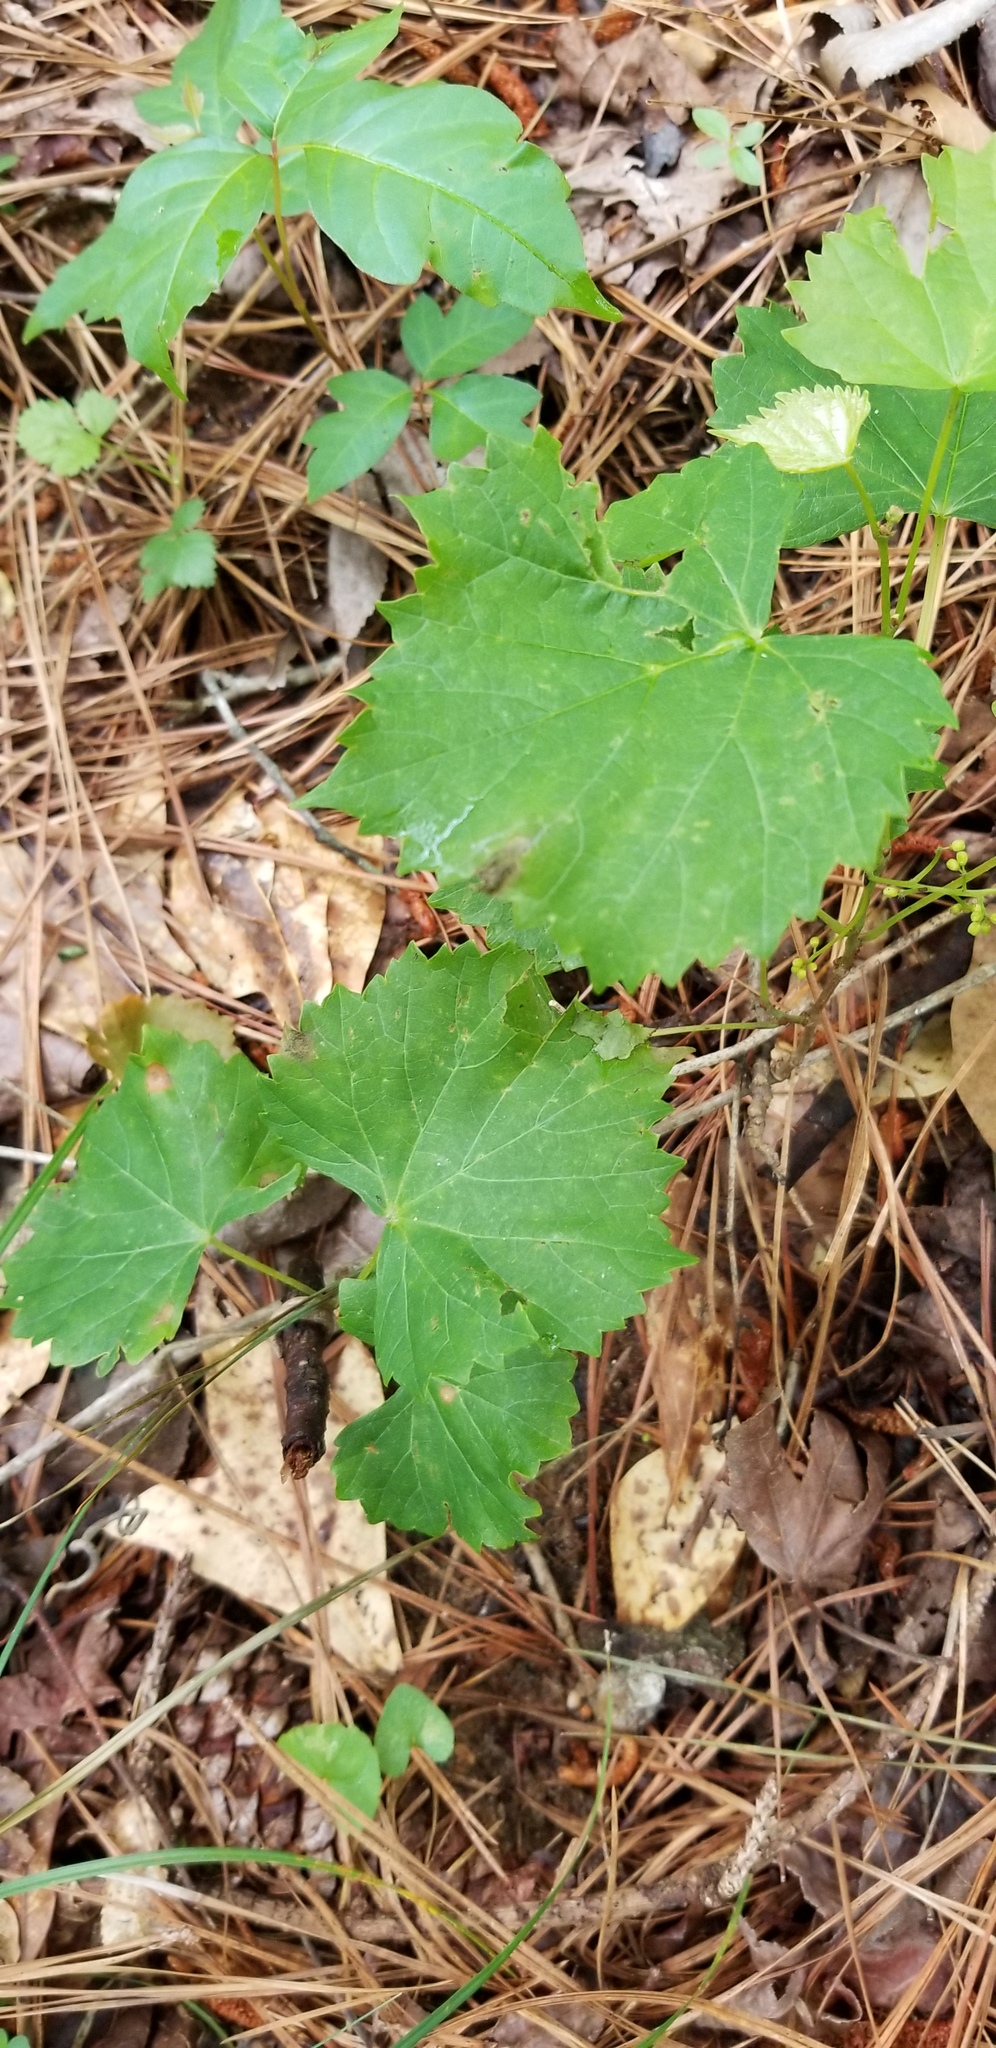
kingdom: Plantae
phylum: Tracheophyta
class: Magnoliopsida
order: Vitales
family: Vitaceae
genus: Vitis
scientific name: Vitis rotundifolia
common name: Muscadine grape
